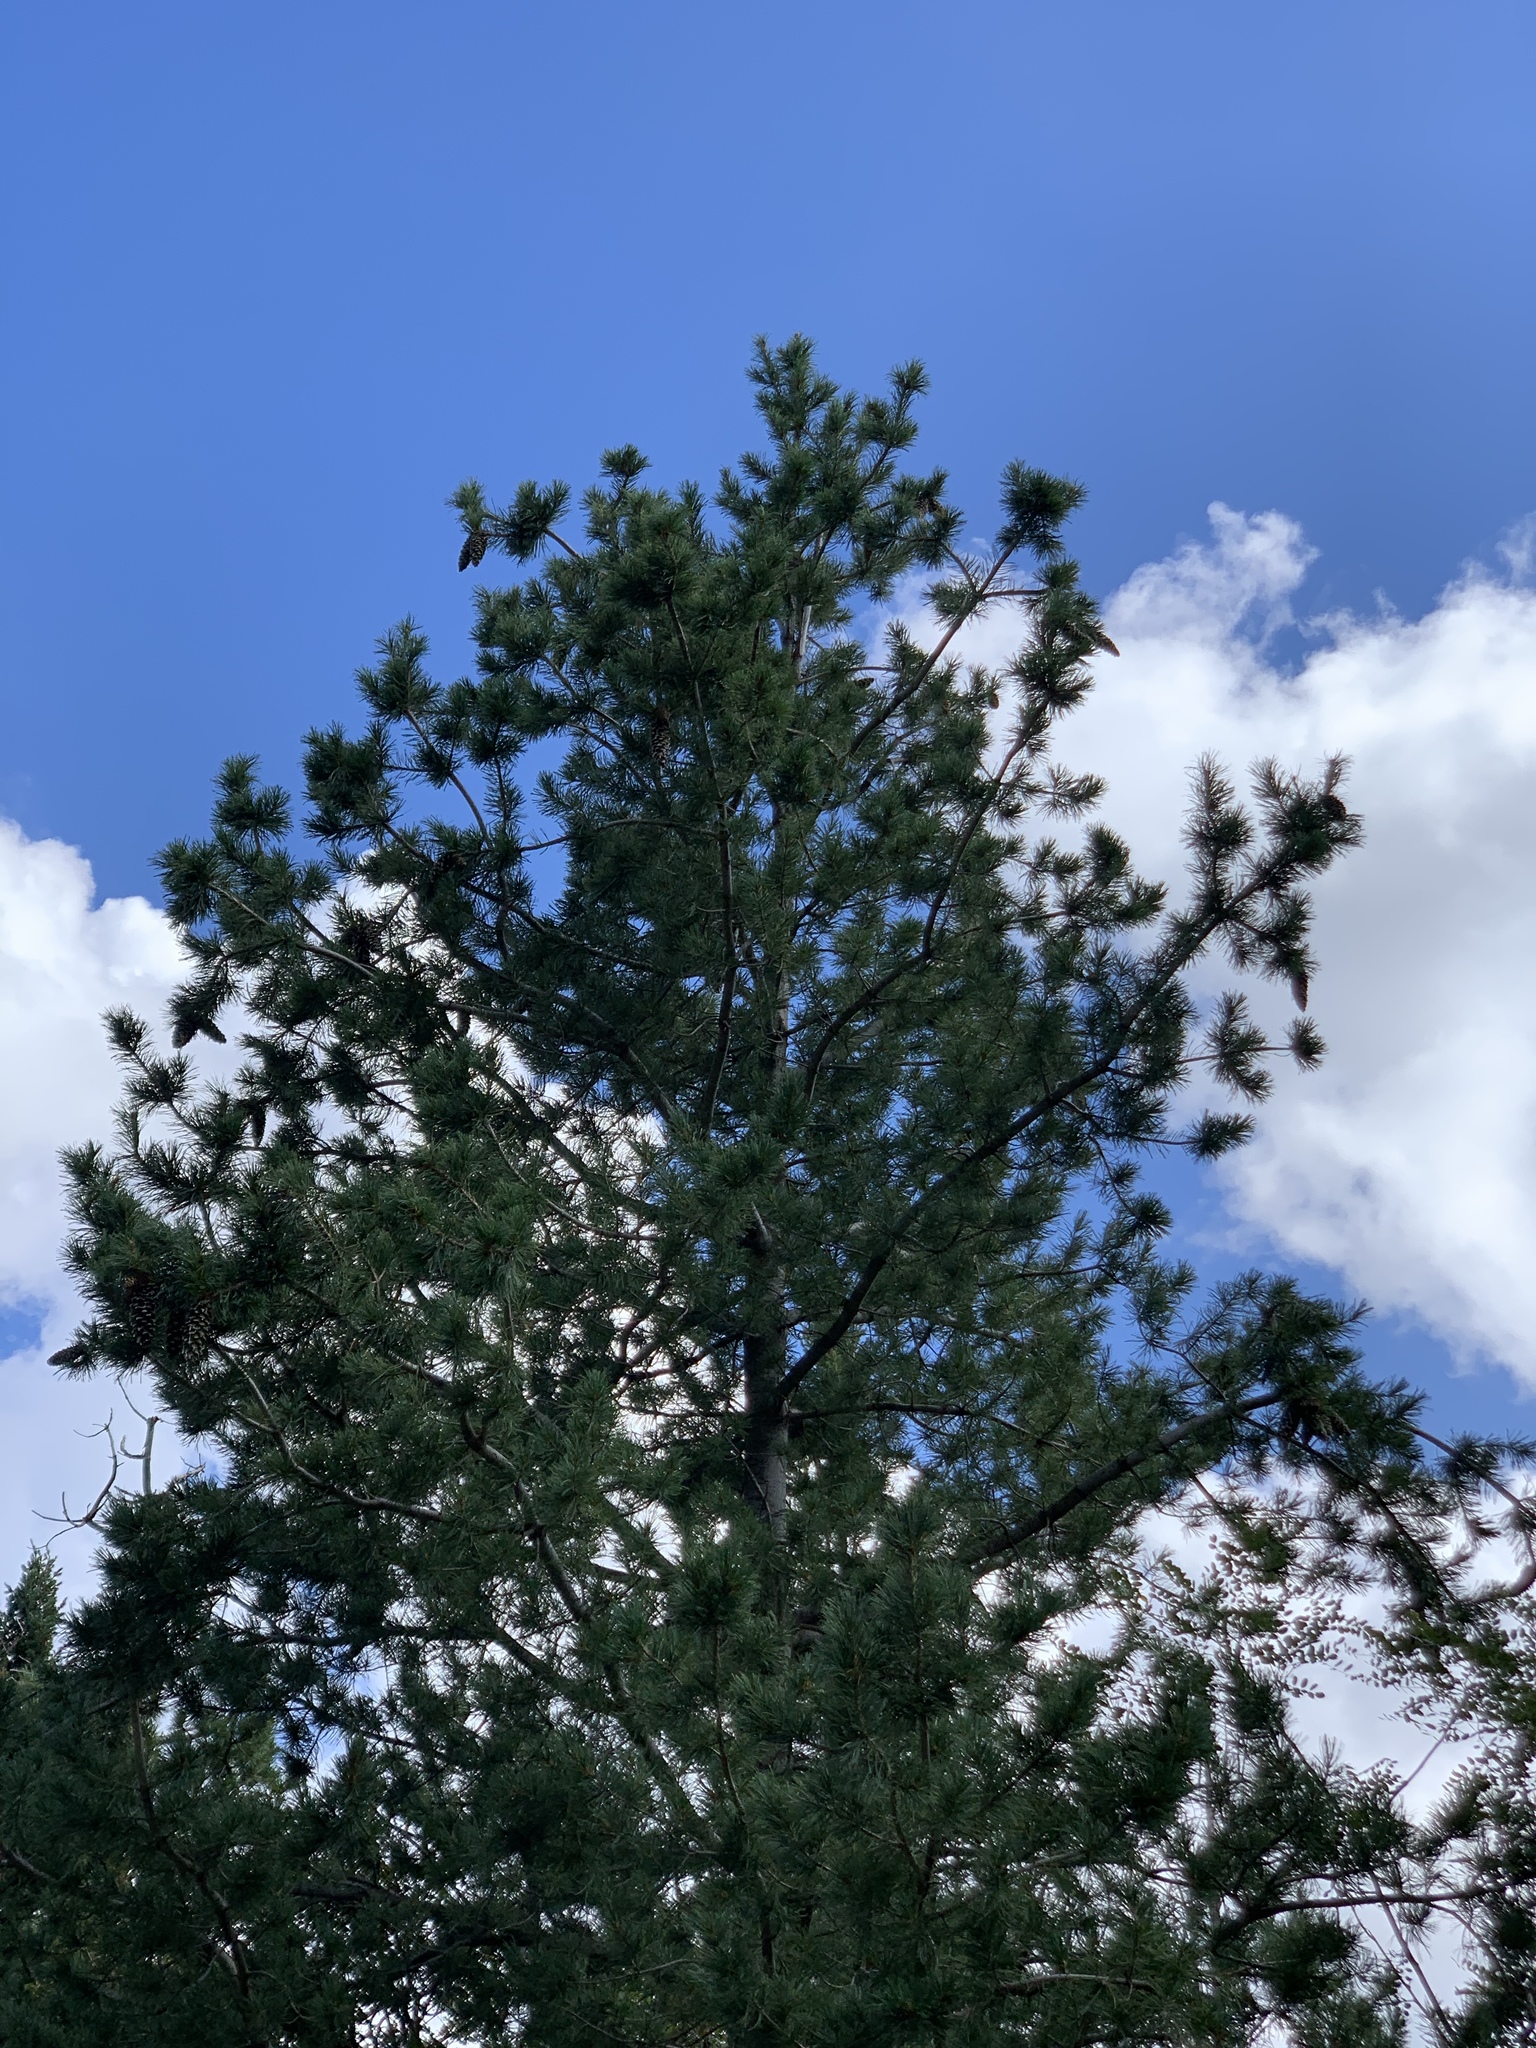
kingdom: Plantae
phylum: Tracheophyta
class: Pinopsida
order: Pinales
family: Pinaceae
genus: Pinus
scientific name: Pinus strobiformis
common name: Southwestern white pine
